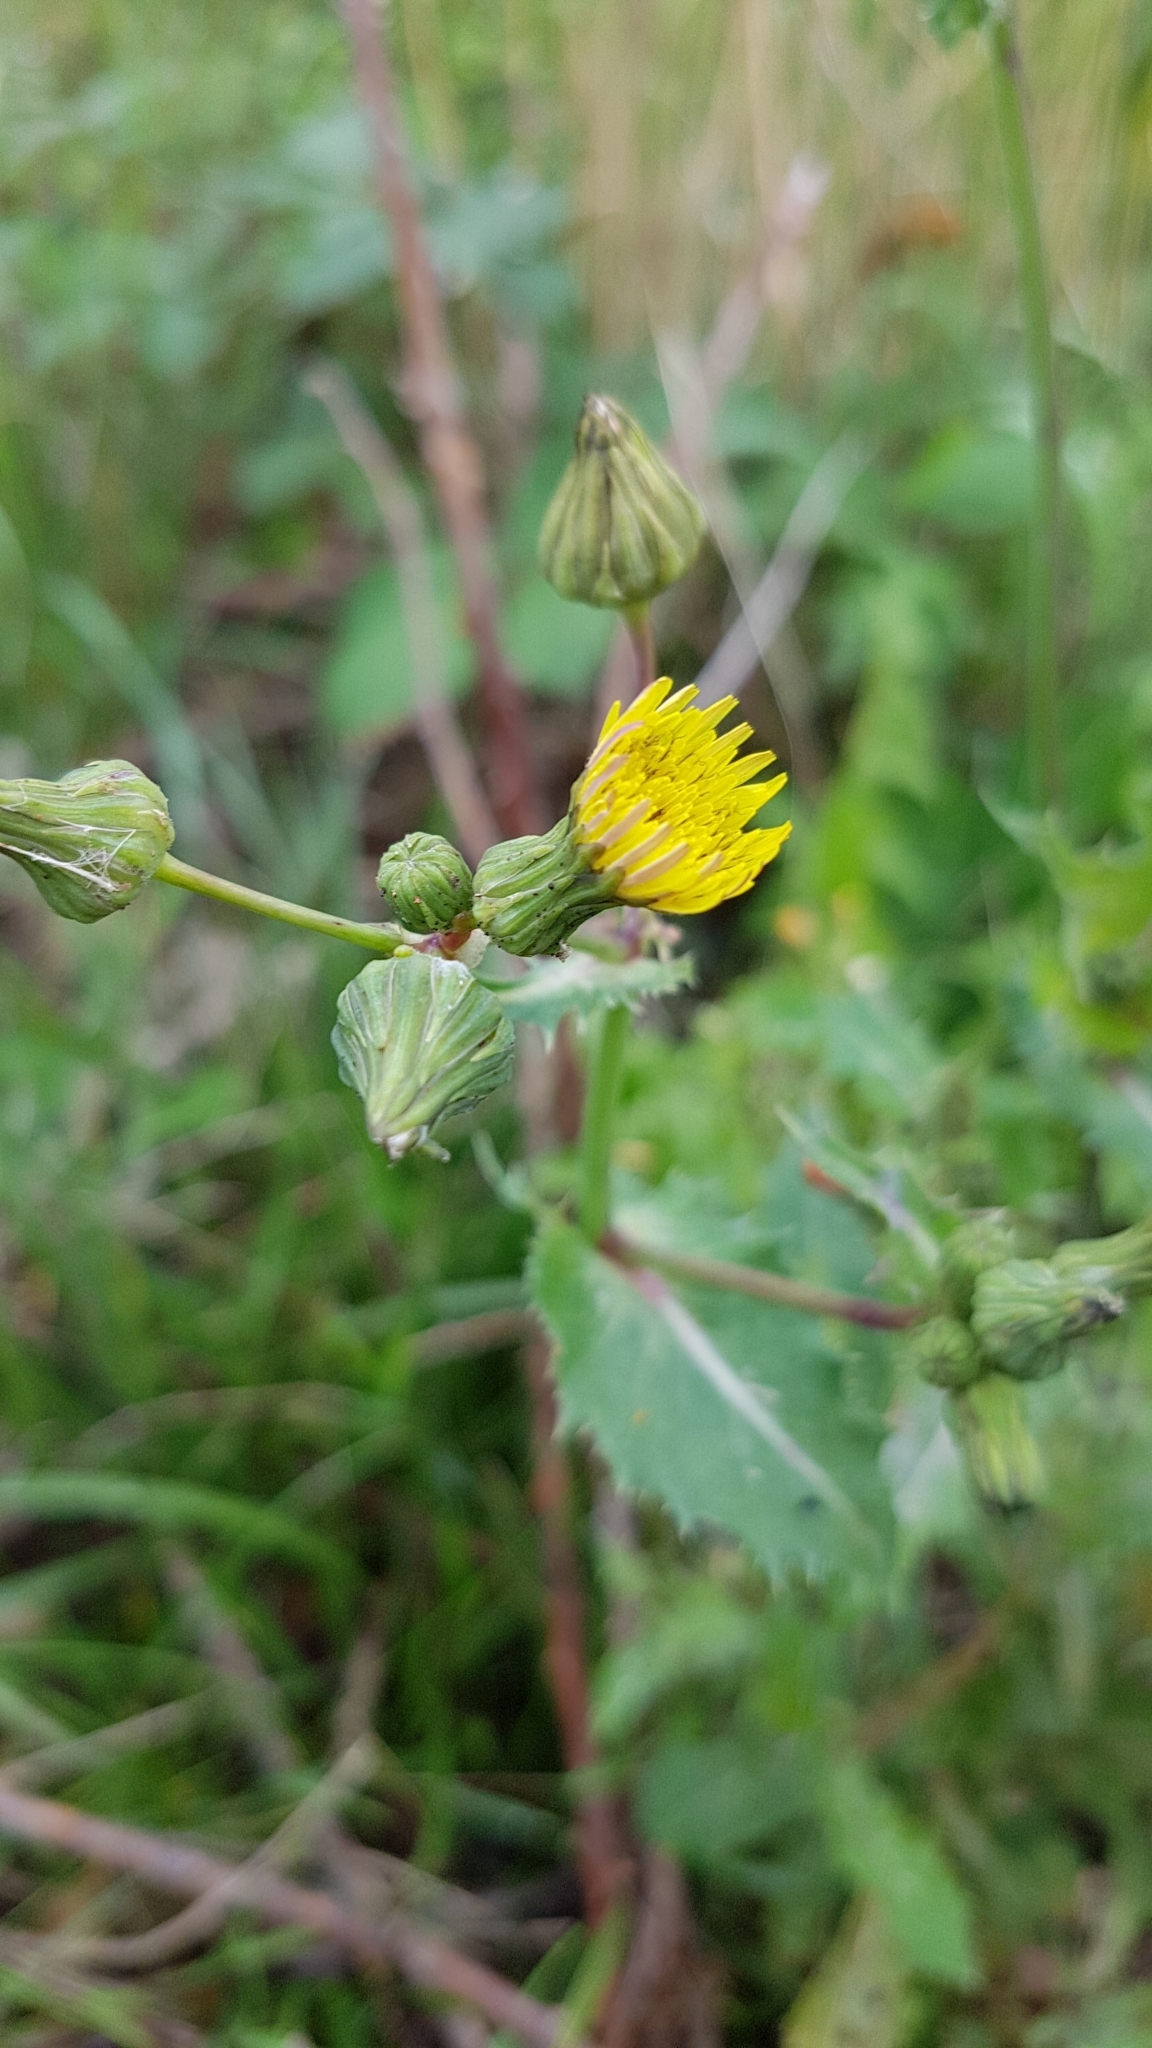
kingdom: Plantae
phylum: Tracheophyta
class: Magnoliopsida
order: Asterales
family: Asteraceae
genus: Sonchus
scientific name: Sonchus asper
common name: Prickly sow-thistle
